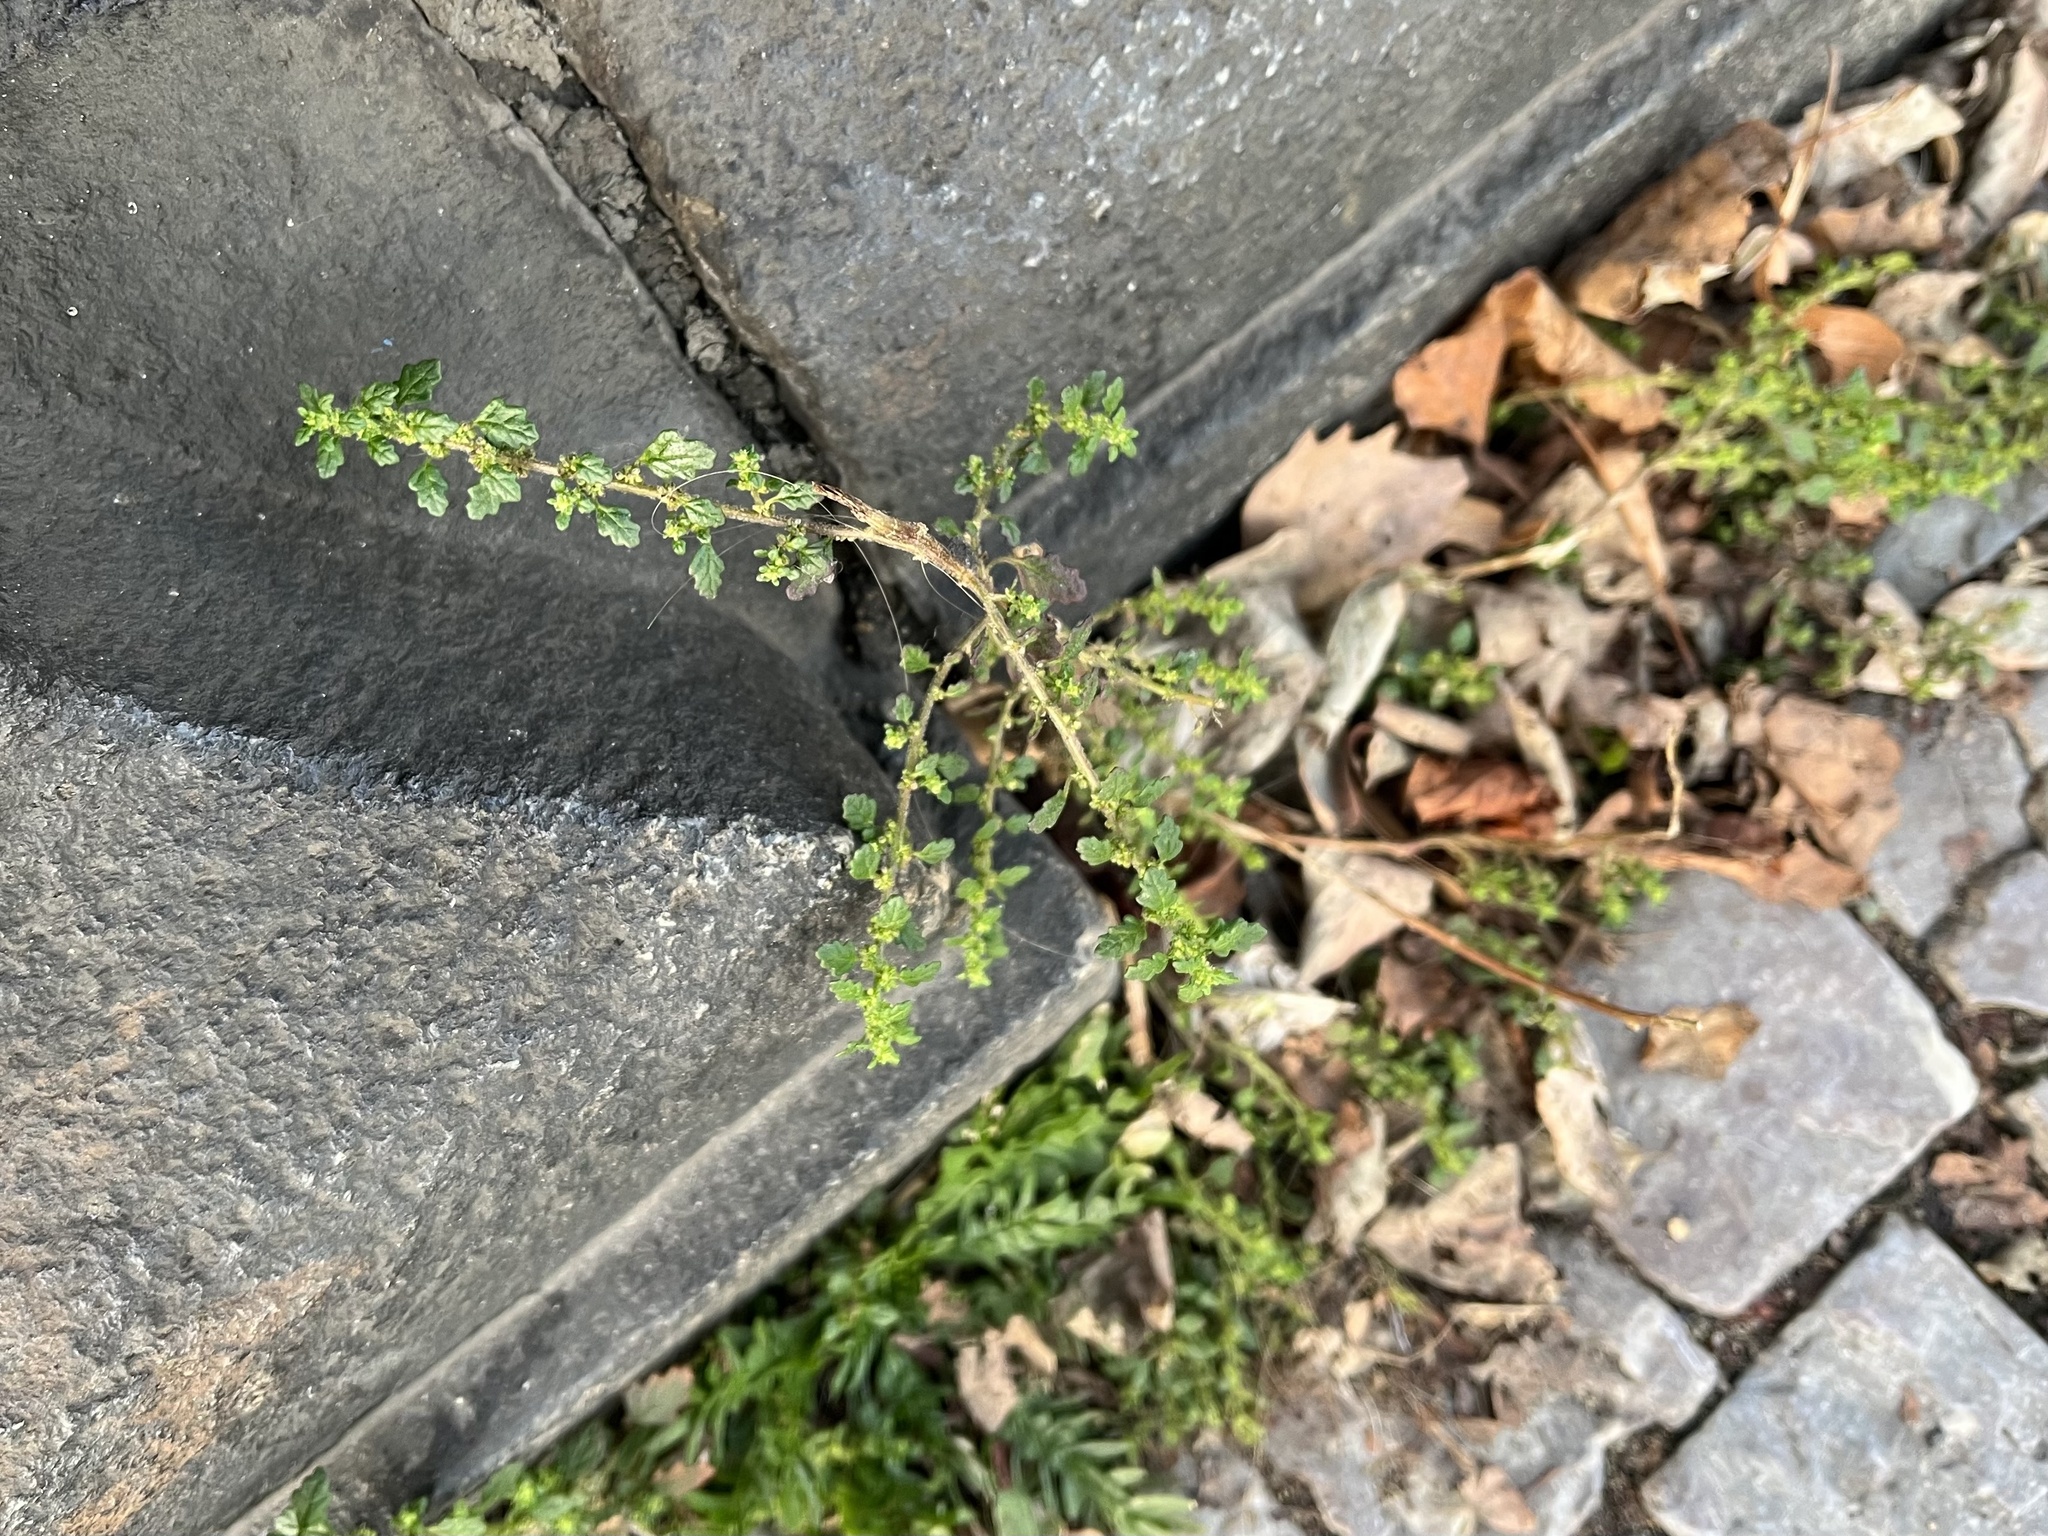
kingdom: Plantae
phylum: Tracheophyta
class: Magnoliopsida
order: Caryophyllales
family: Amaranthaceae
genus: Dysphania
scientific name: Dysphania pumilio
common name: Clammy goosefoot
